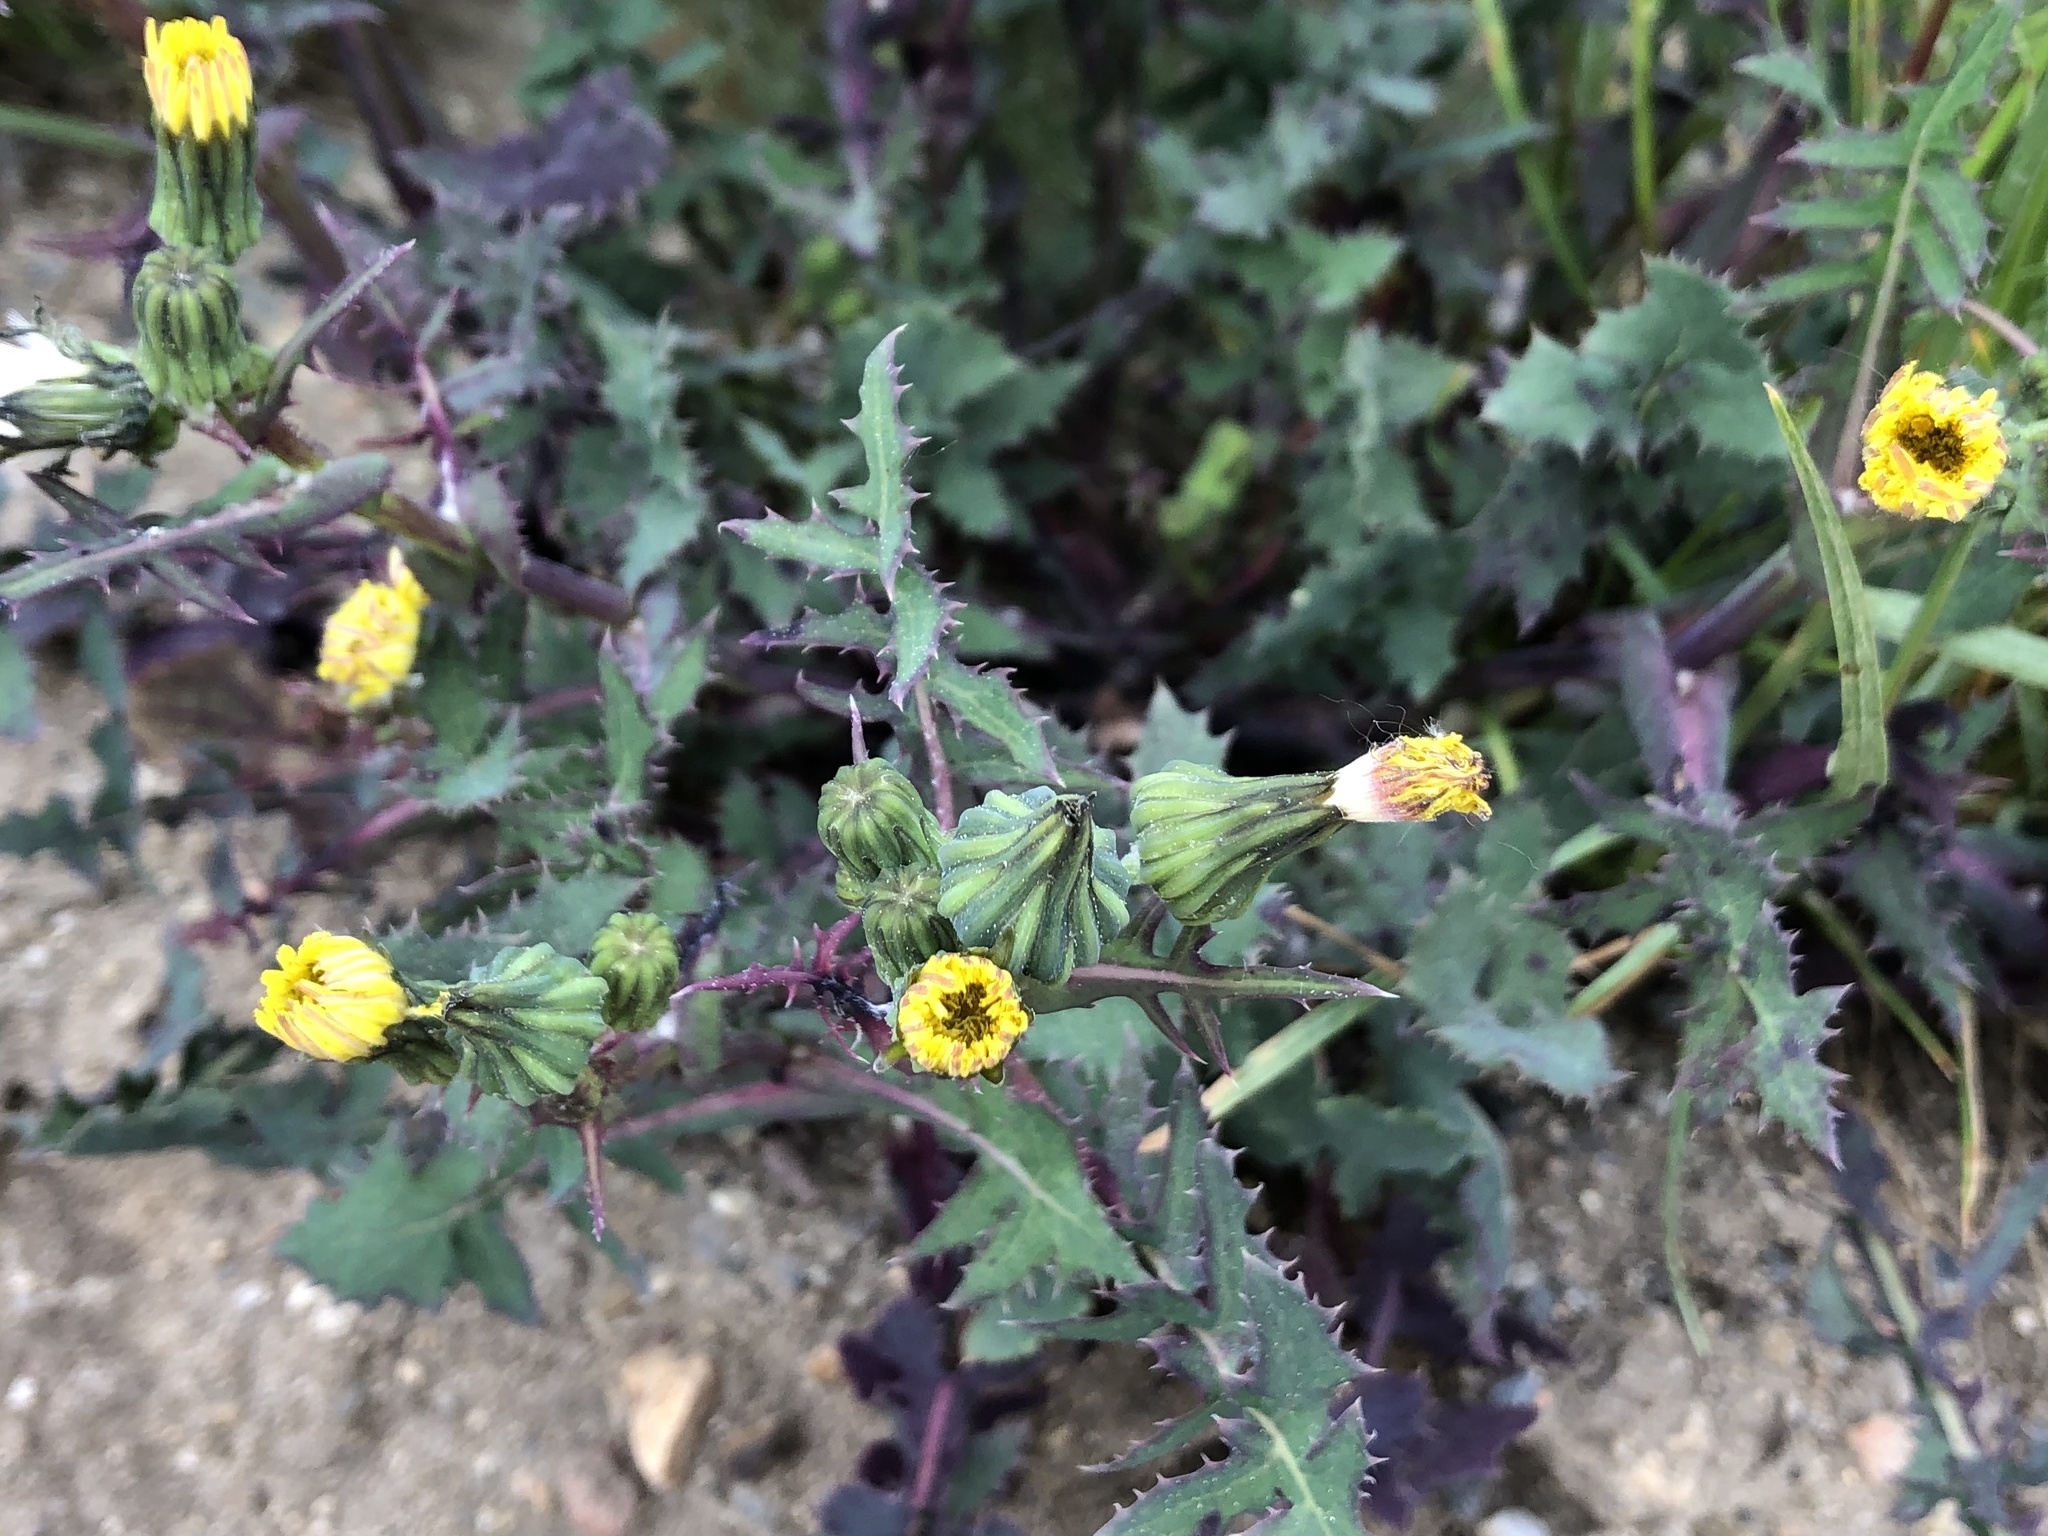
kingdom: Plantae
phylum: Tracheophyta
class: Magnoliopsida
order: Asterales
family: Asteraceae
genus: Sonchus
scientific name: Sonchus oleraceus
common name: Common sowthistle
